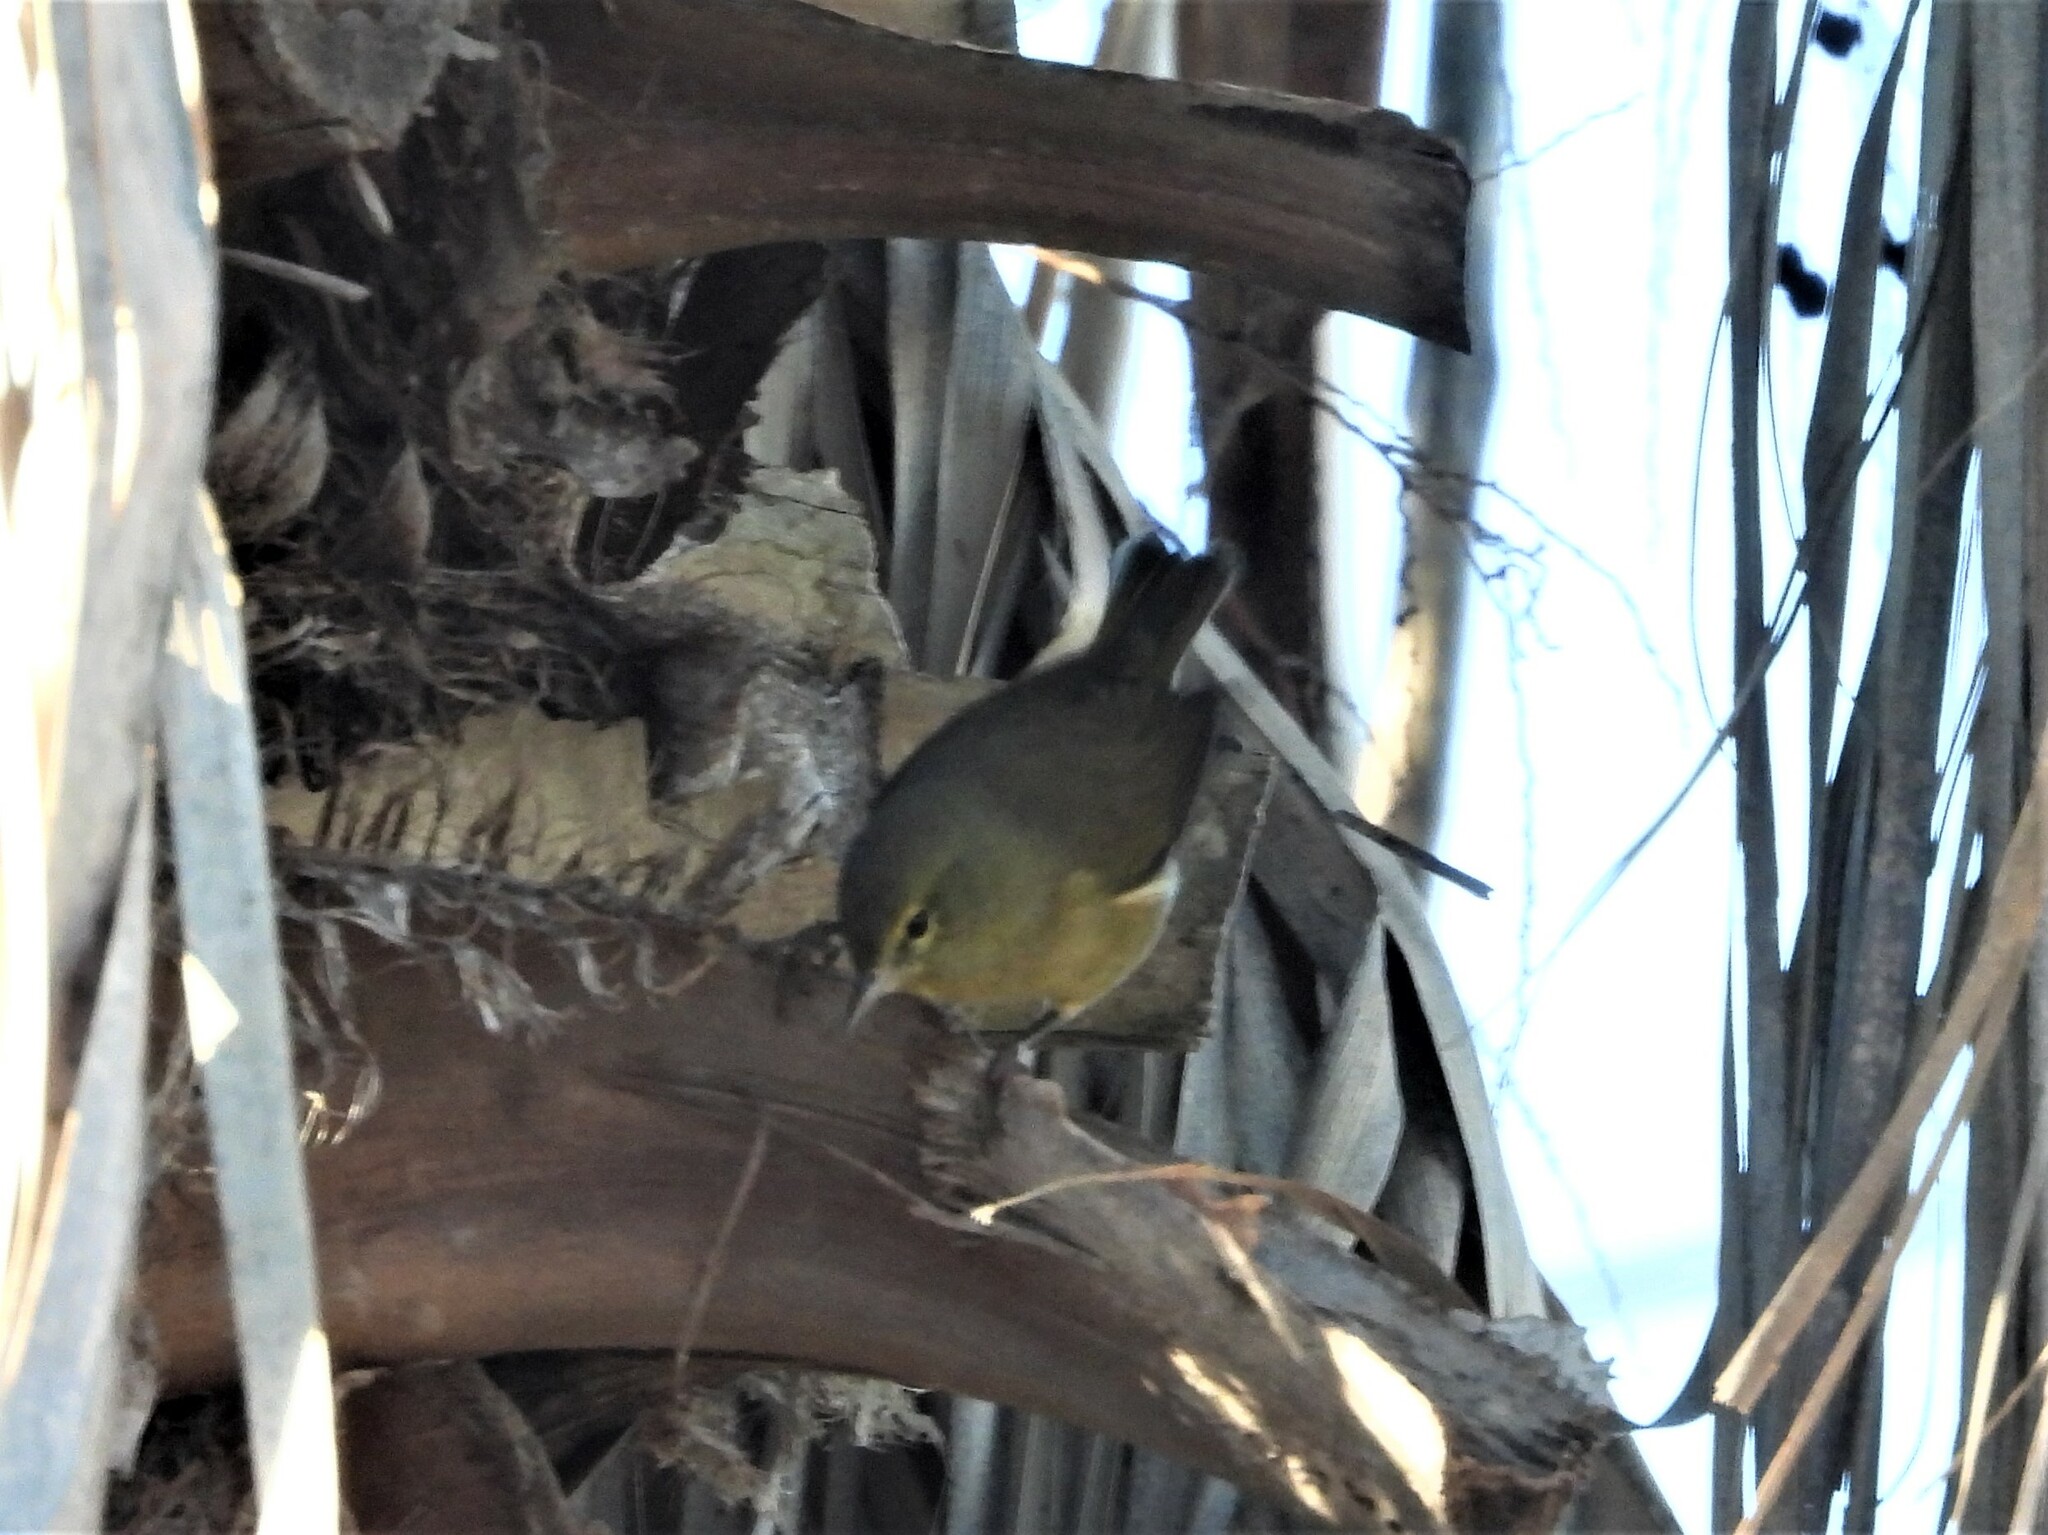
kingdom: Animalia
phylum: Chordata
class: Aves
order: Passeriformes
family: Parulidae
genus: Leiothlypis
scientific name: Leiothlypis celata
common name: Orange-crowned warbler
